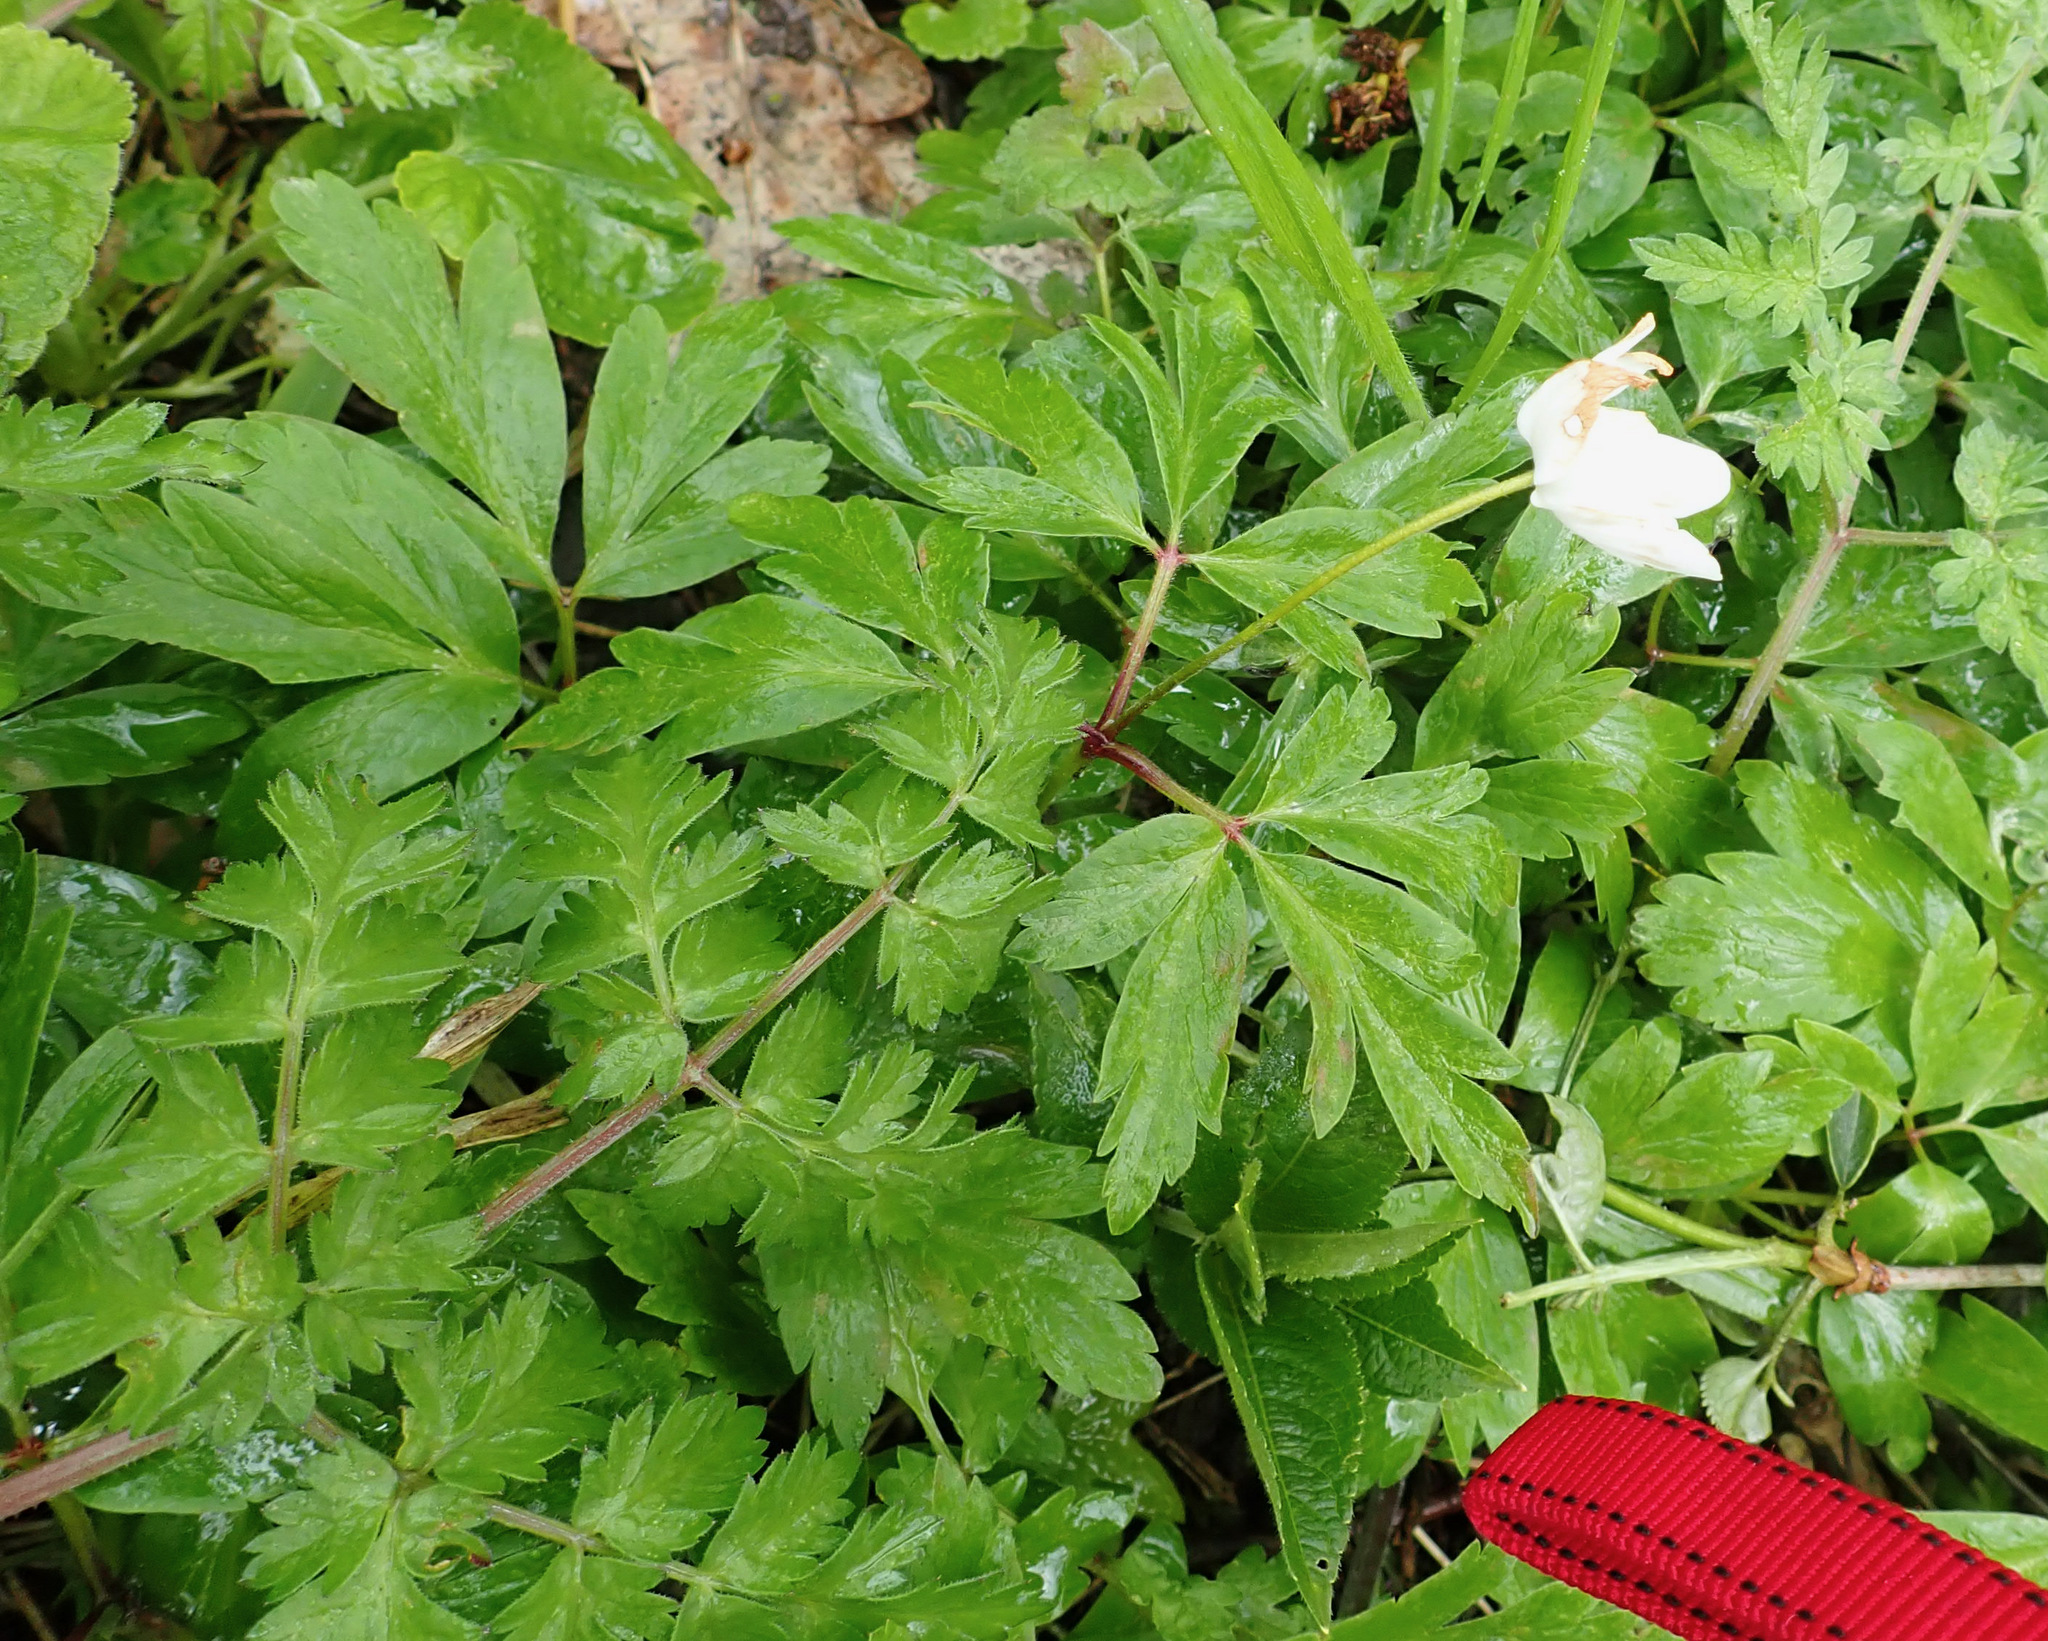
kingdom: Plantae
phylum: Tracheophyta
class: Magnoliopsida
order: Ranunculales
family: Ranunculaceae
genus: Anemone
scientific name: Anemone nemorosa
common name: Wood anemone
